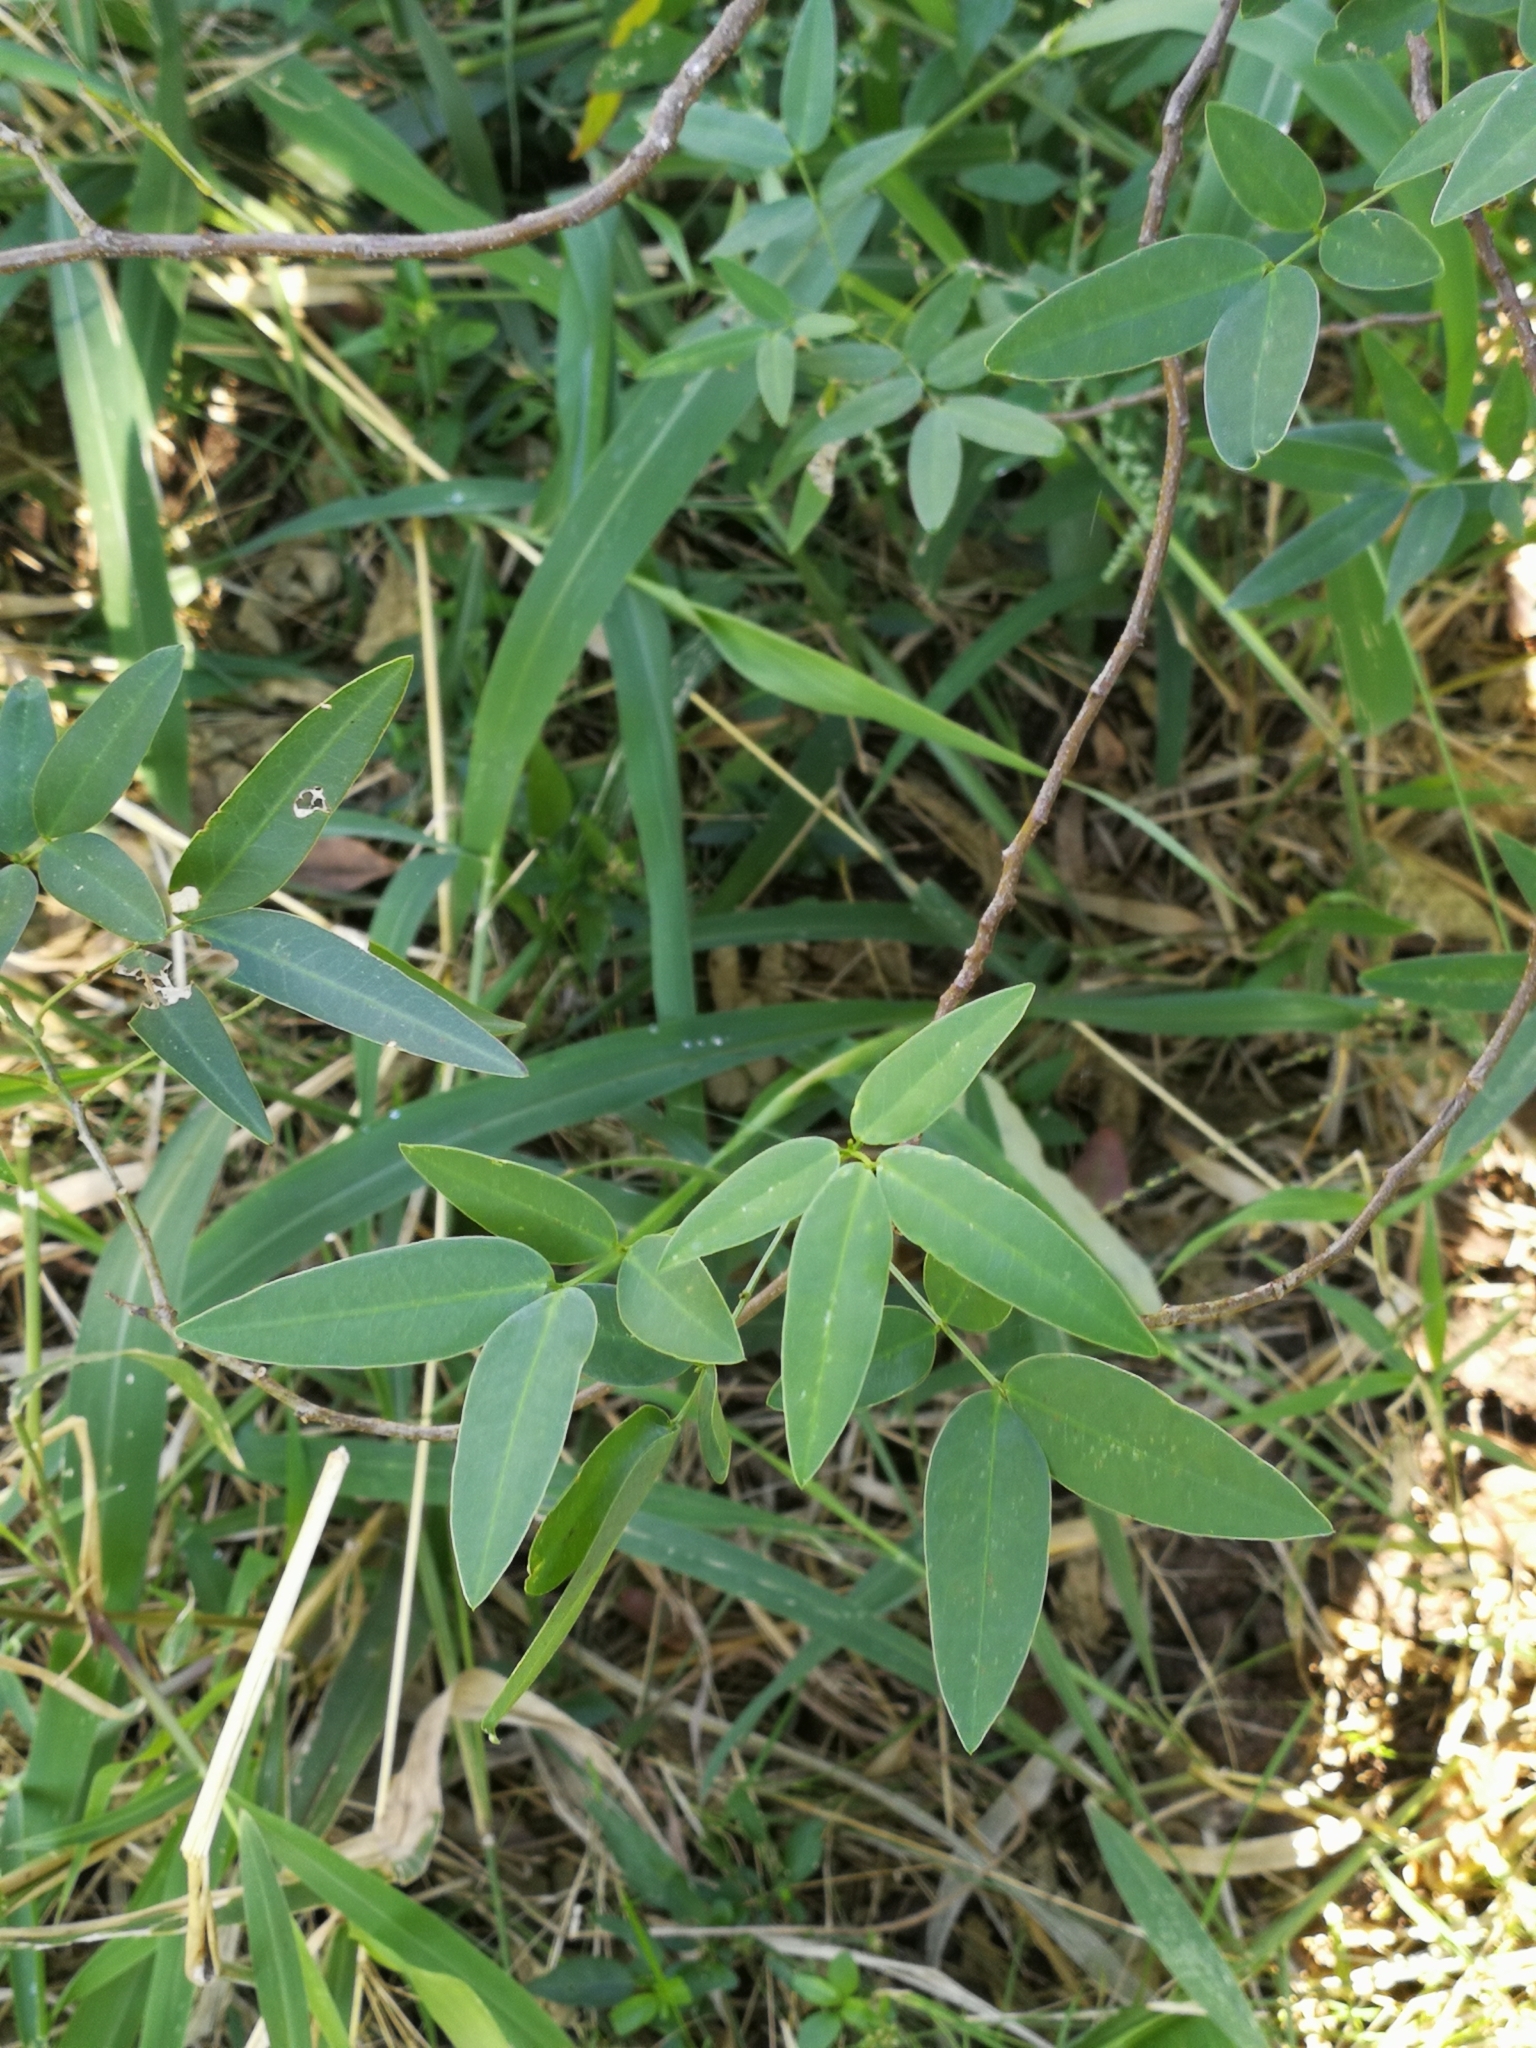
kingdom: Plantae
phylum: Tracheophyta
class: Magnoliopsida
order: Fabales
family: Fabaceae
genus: Senna
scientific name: Senna corymbosa
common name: Argentine senna
